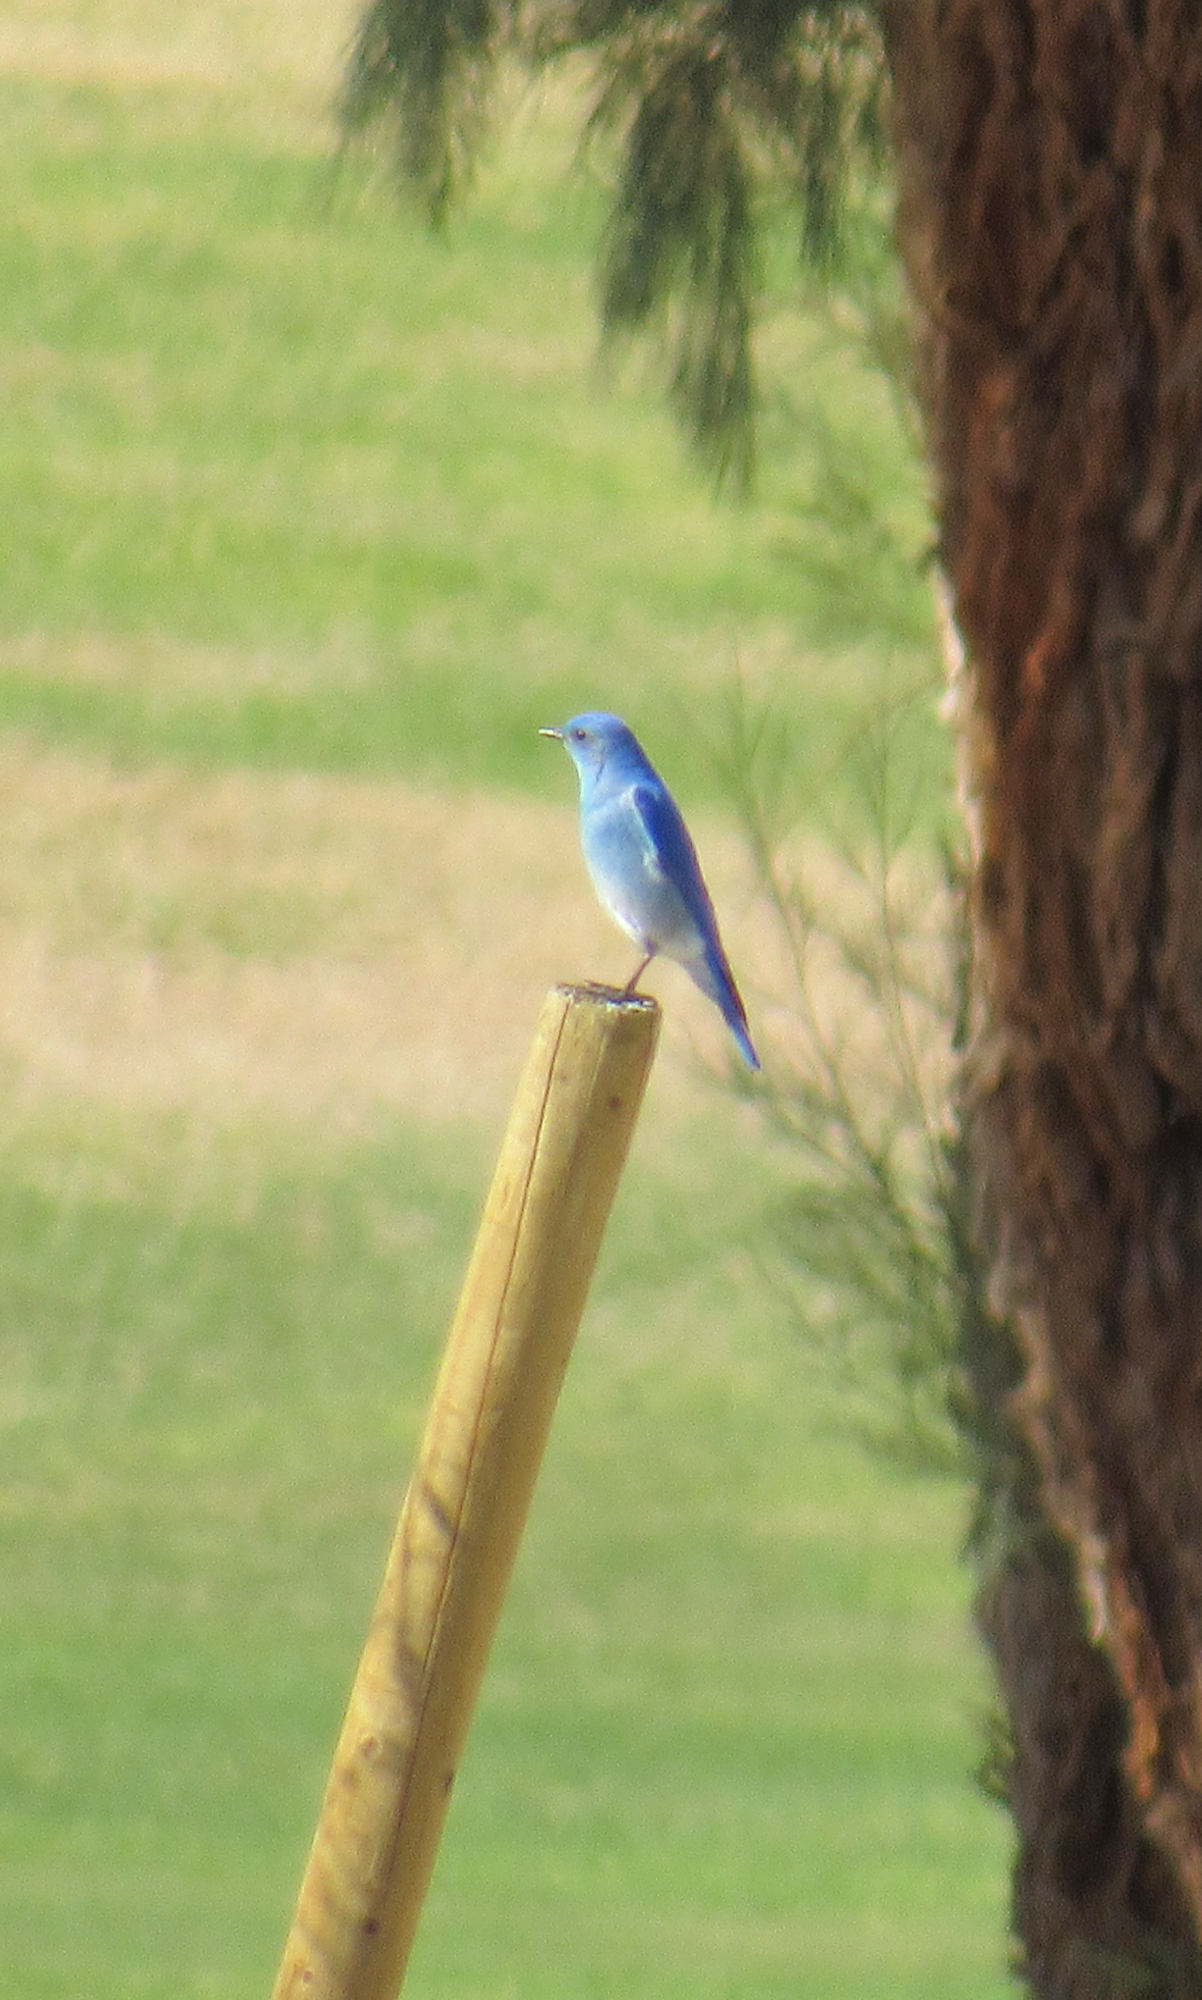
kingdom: Animalia
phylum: Chordata
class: Aves
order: Passeriformes
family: Turdidae
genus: Sialia
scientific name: Sialia currucoides
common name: Mountain bluebird
